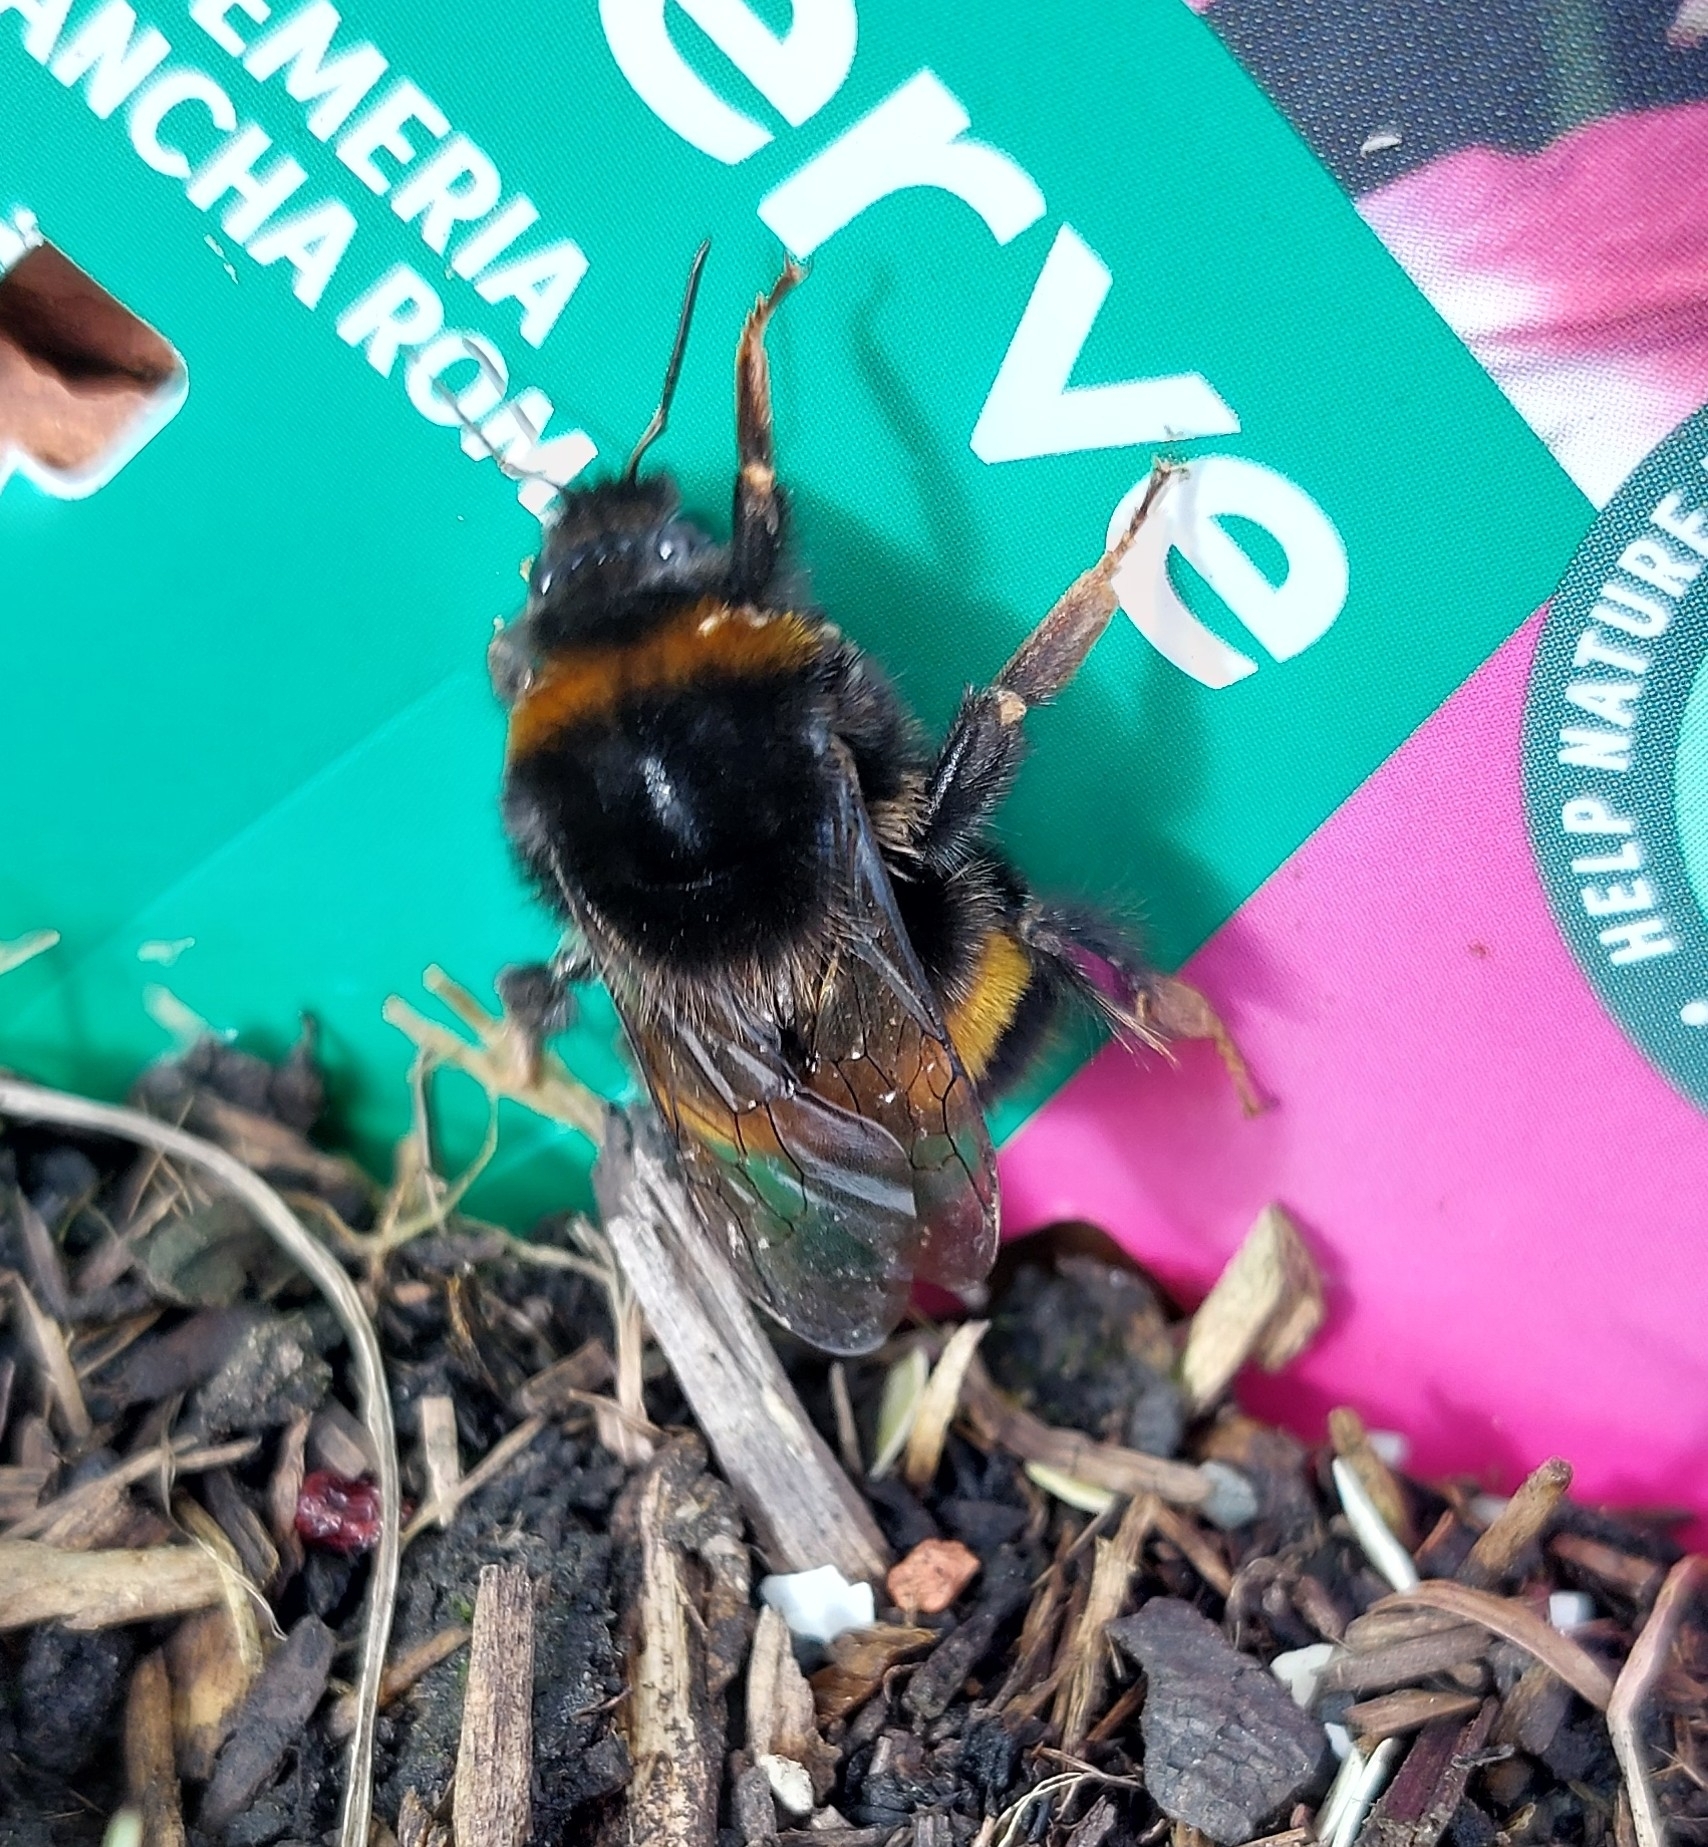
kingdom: Animalia
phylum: Arthropoda
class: Insecta
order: Hymenoptera
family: Apidae
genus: Bombus
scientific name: Bombus terrestris
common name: Buff-tailed bumblebee
